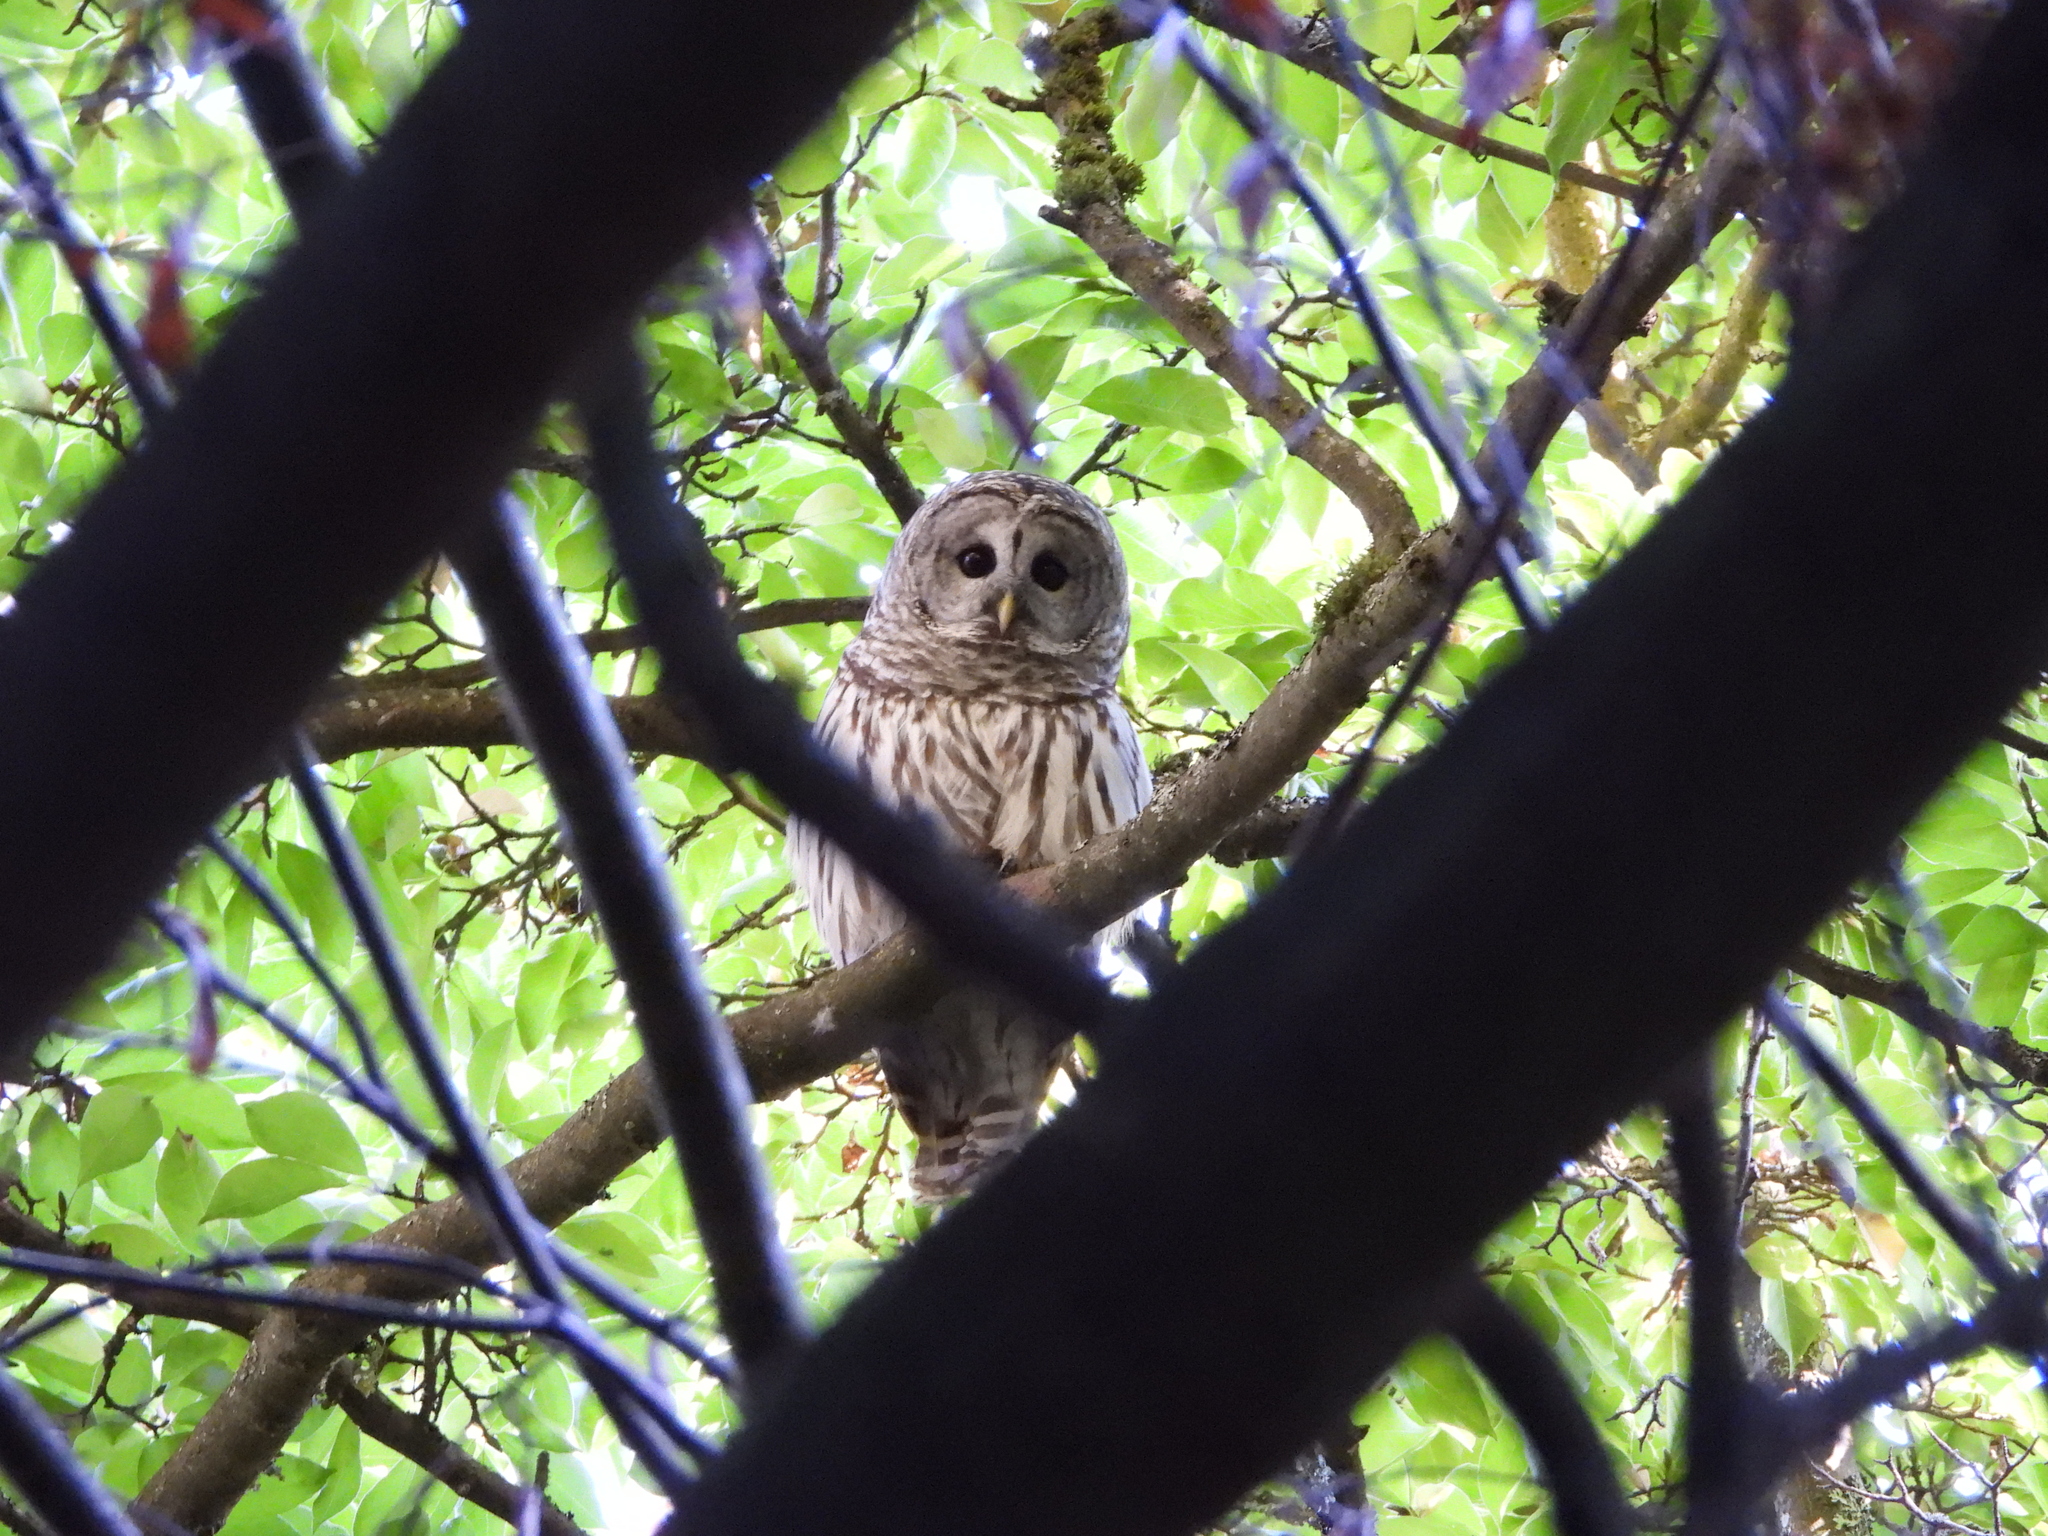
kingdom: Animalia
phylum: Chordata
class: Aves
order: Strigiformes
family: Strigidae
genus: Strix
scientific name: Strix varia
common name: Barred owl
